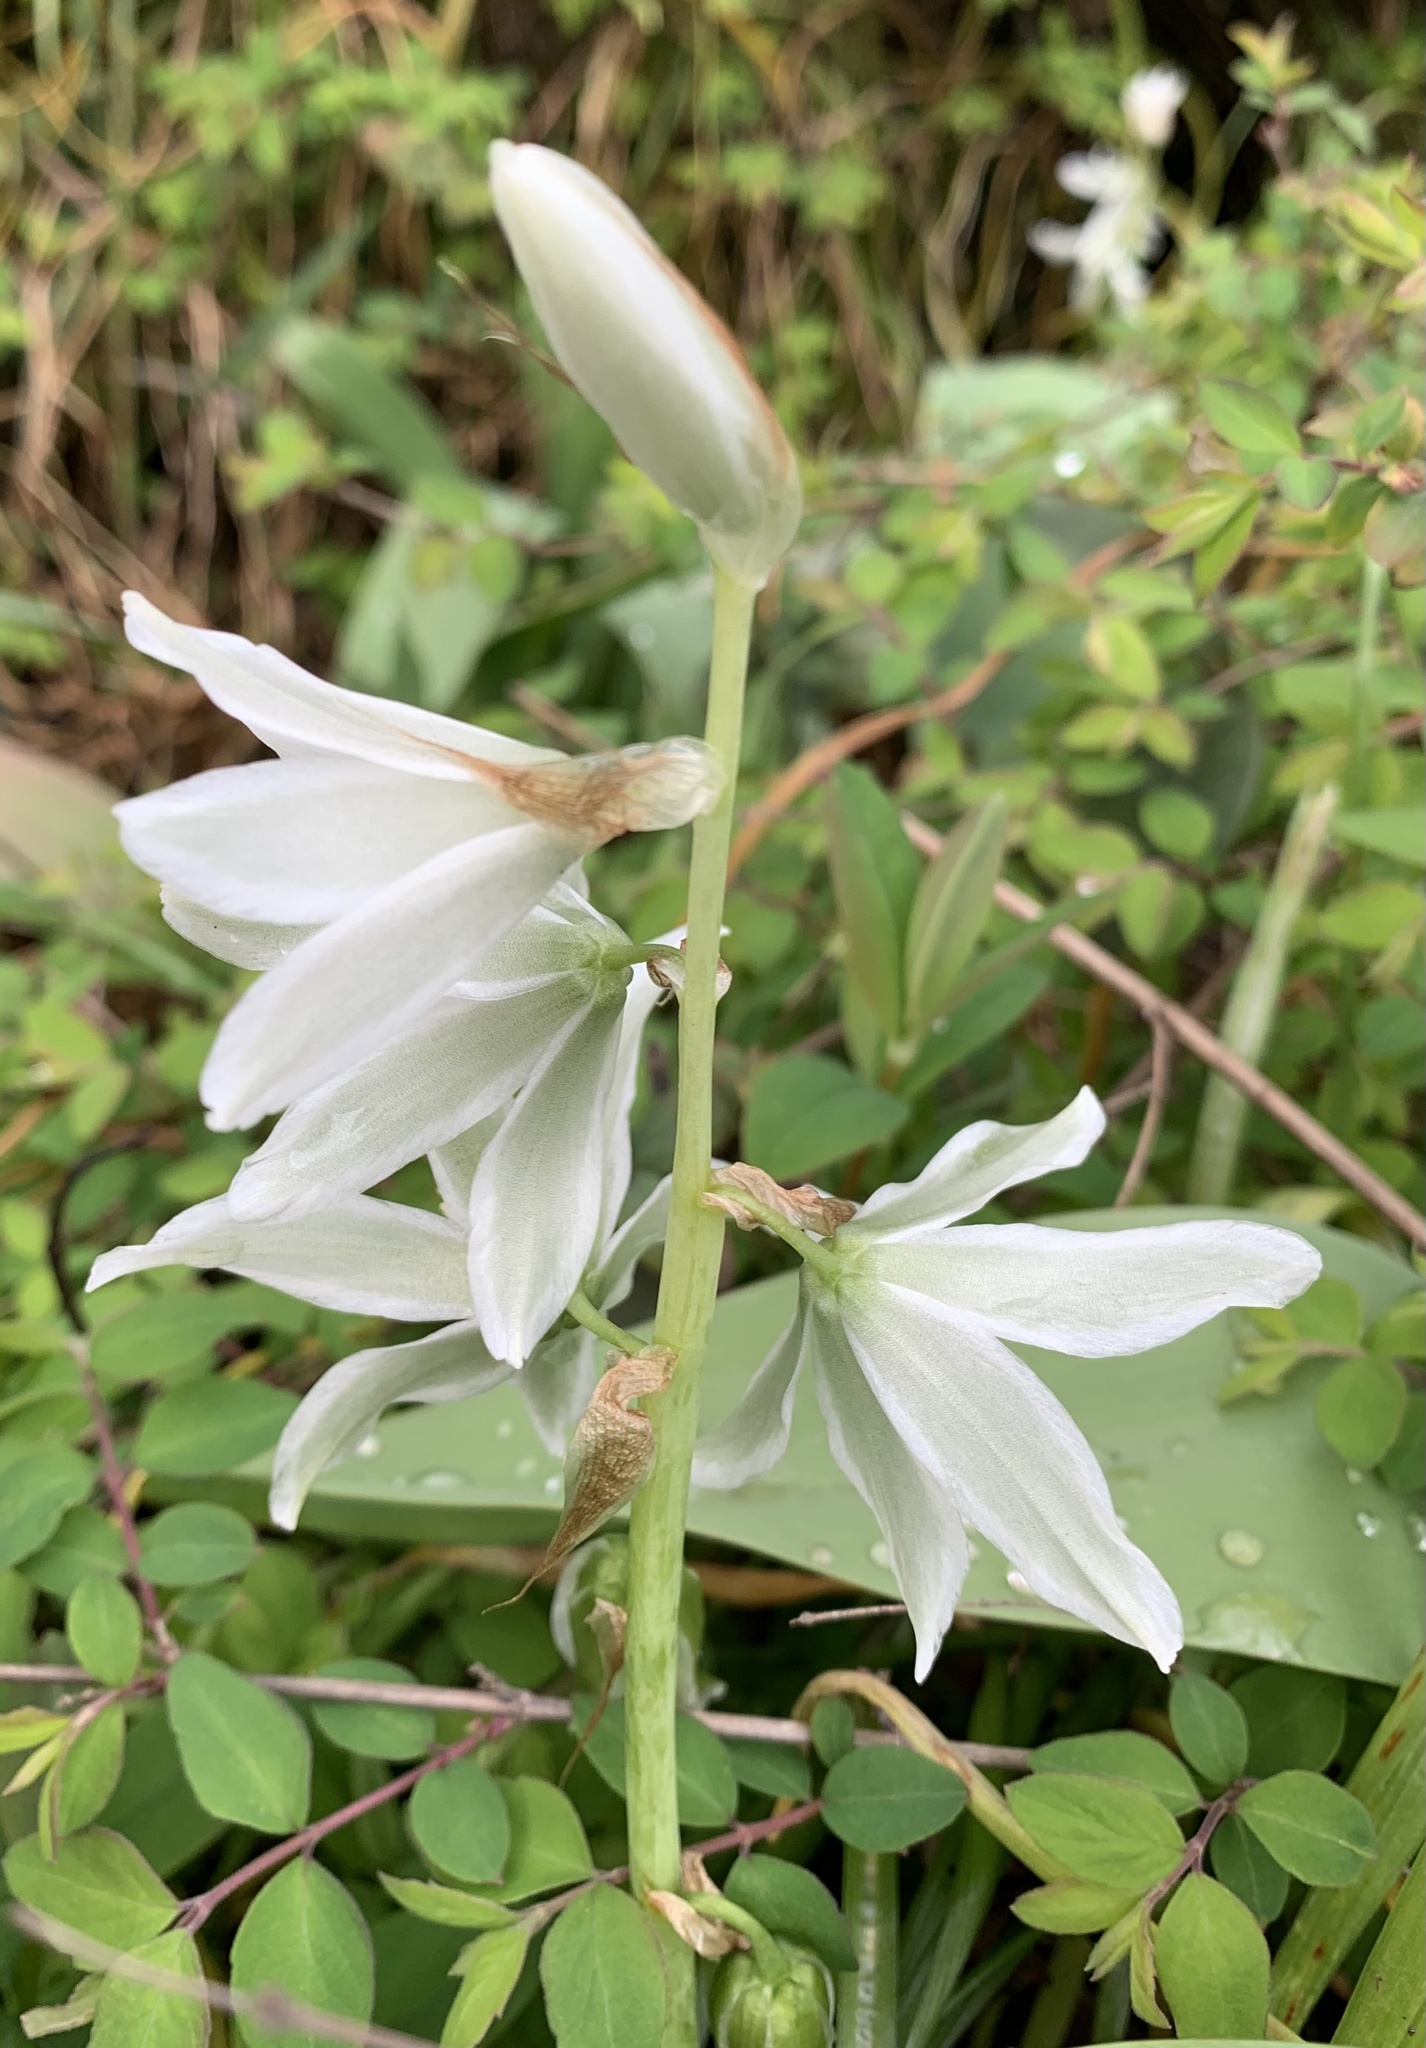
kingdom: Plantae
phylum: Tracheophyta
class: Liliopsida
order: Asparagales
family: Asparagaceae
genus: Ornithogalum
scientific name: Ornithogalum nutans
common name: Drooping star-of-bethlehem
